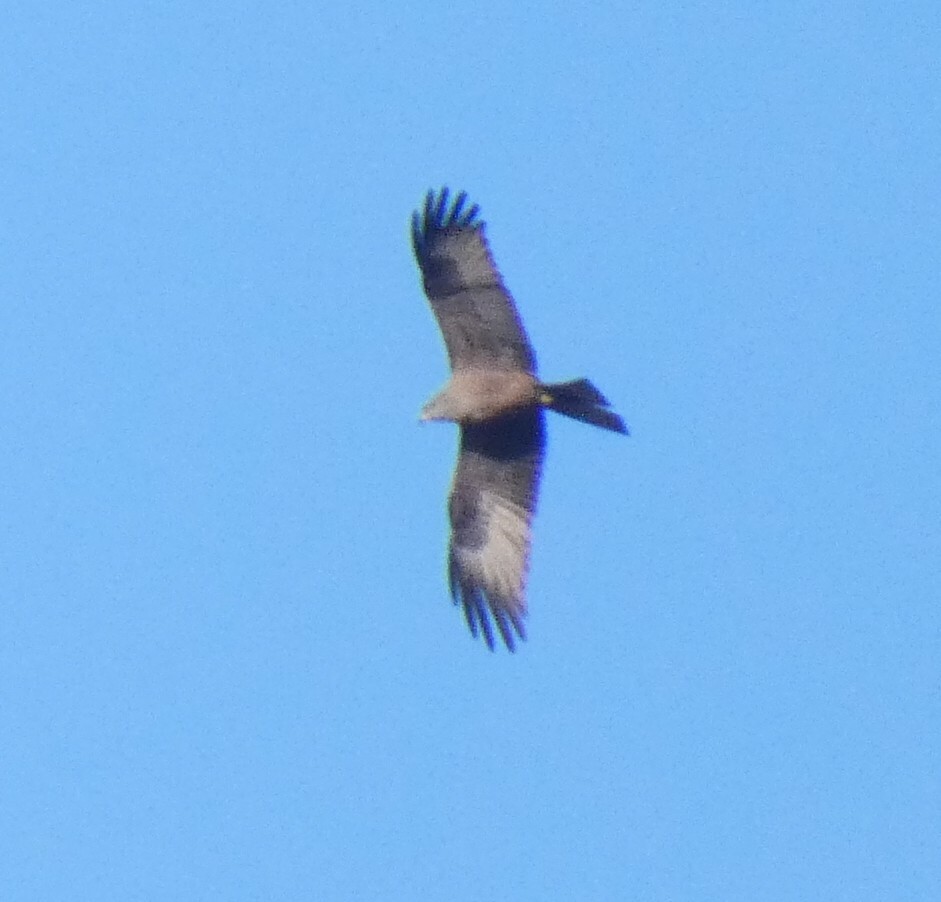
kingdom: Animalia
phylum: Chordata
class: Aves
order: Accipitriformes
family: Accipitridae
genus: Milvus
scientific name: Milvus migrans
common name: Black kite
